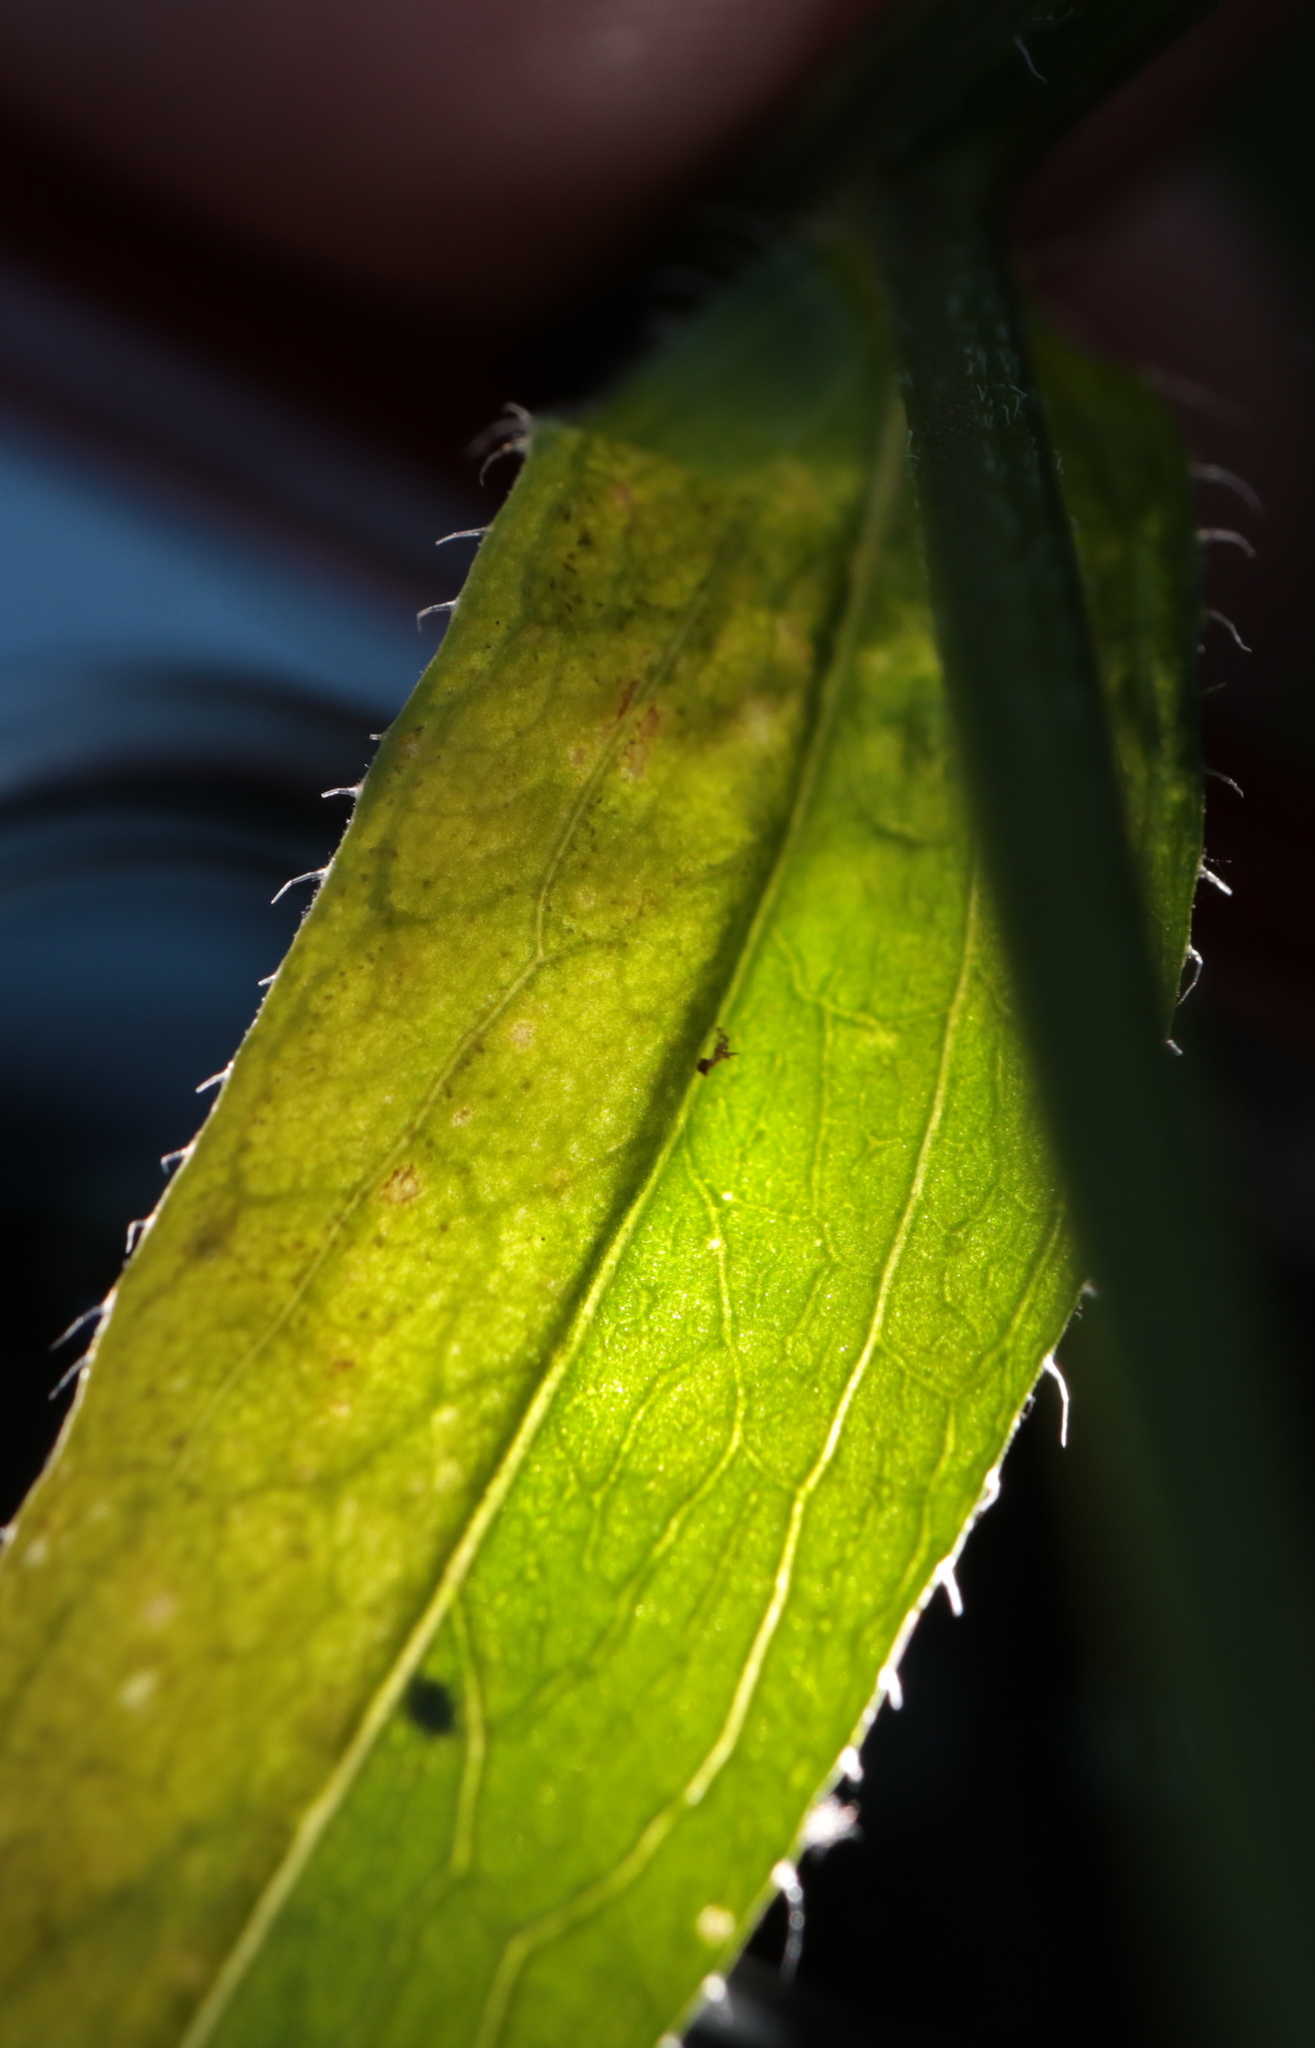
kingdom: Animalia
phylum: Arthropoda
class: Insecta
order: Lepidoptera
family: Gracillariidae
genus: Parectopa
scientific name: Parectopa plantaginisella
